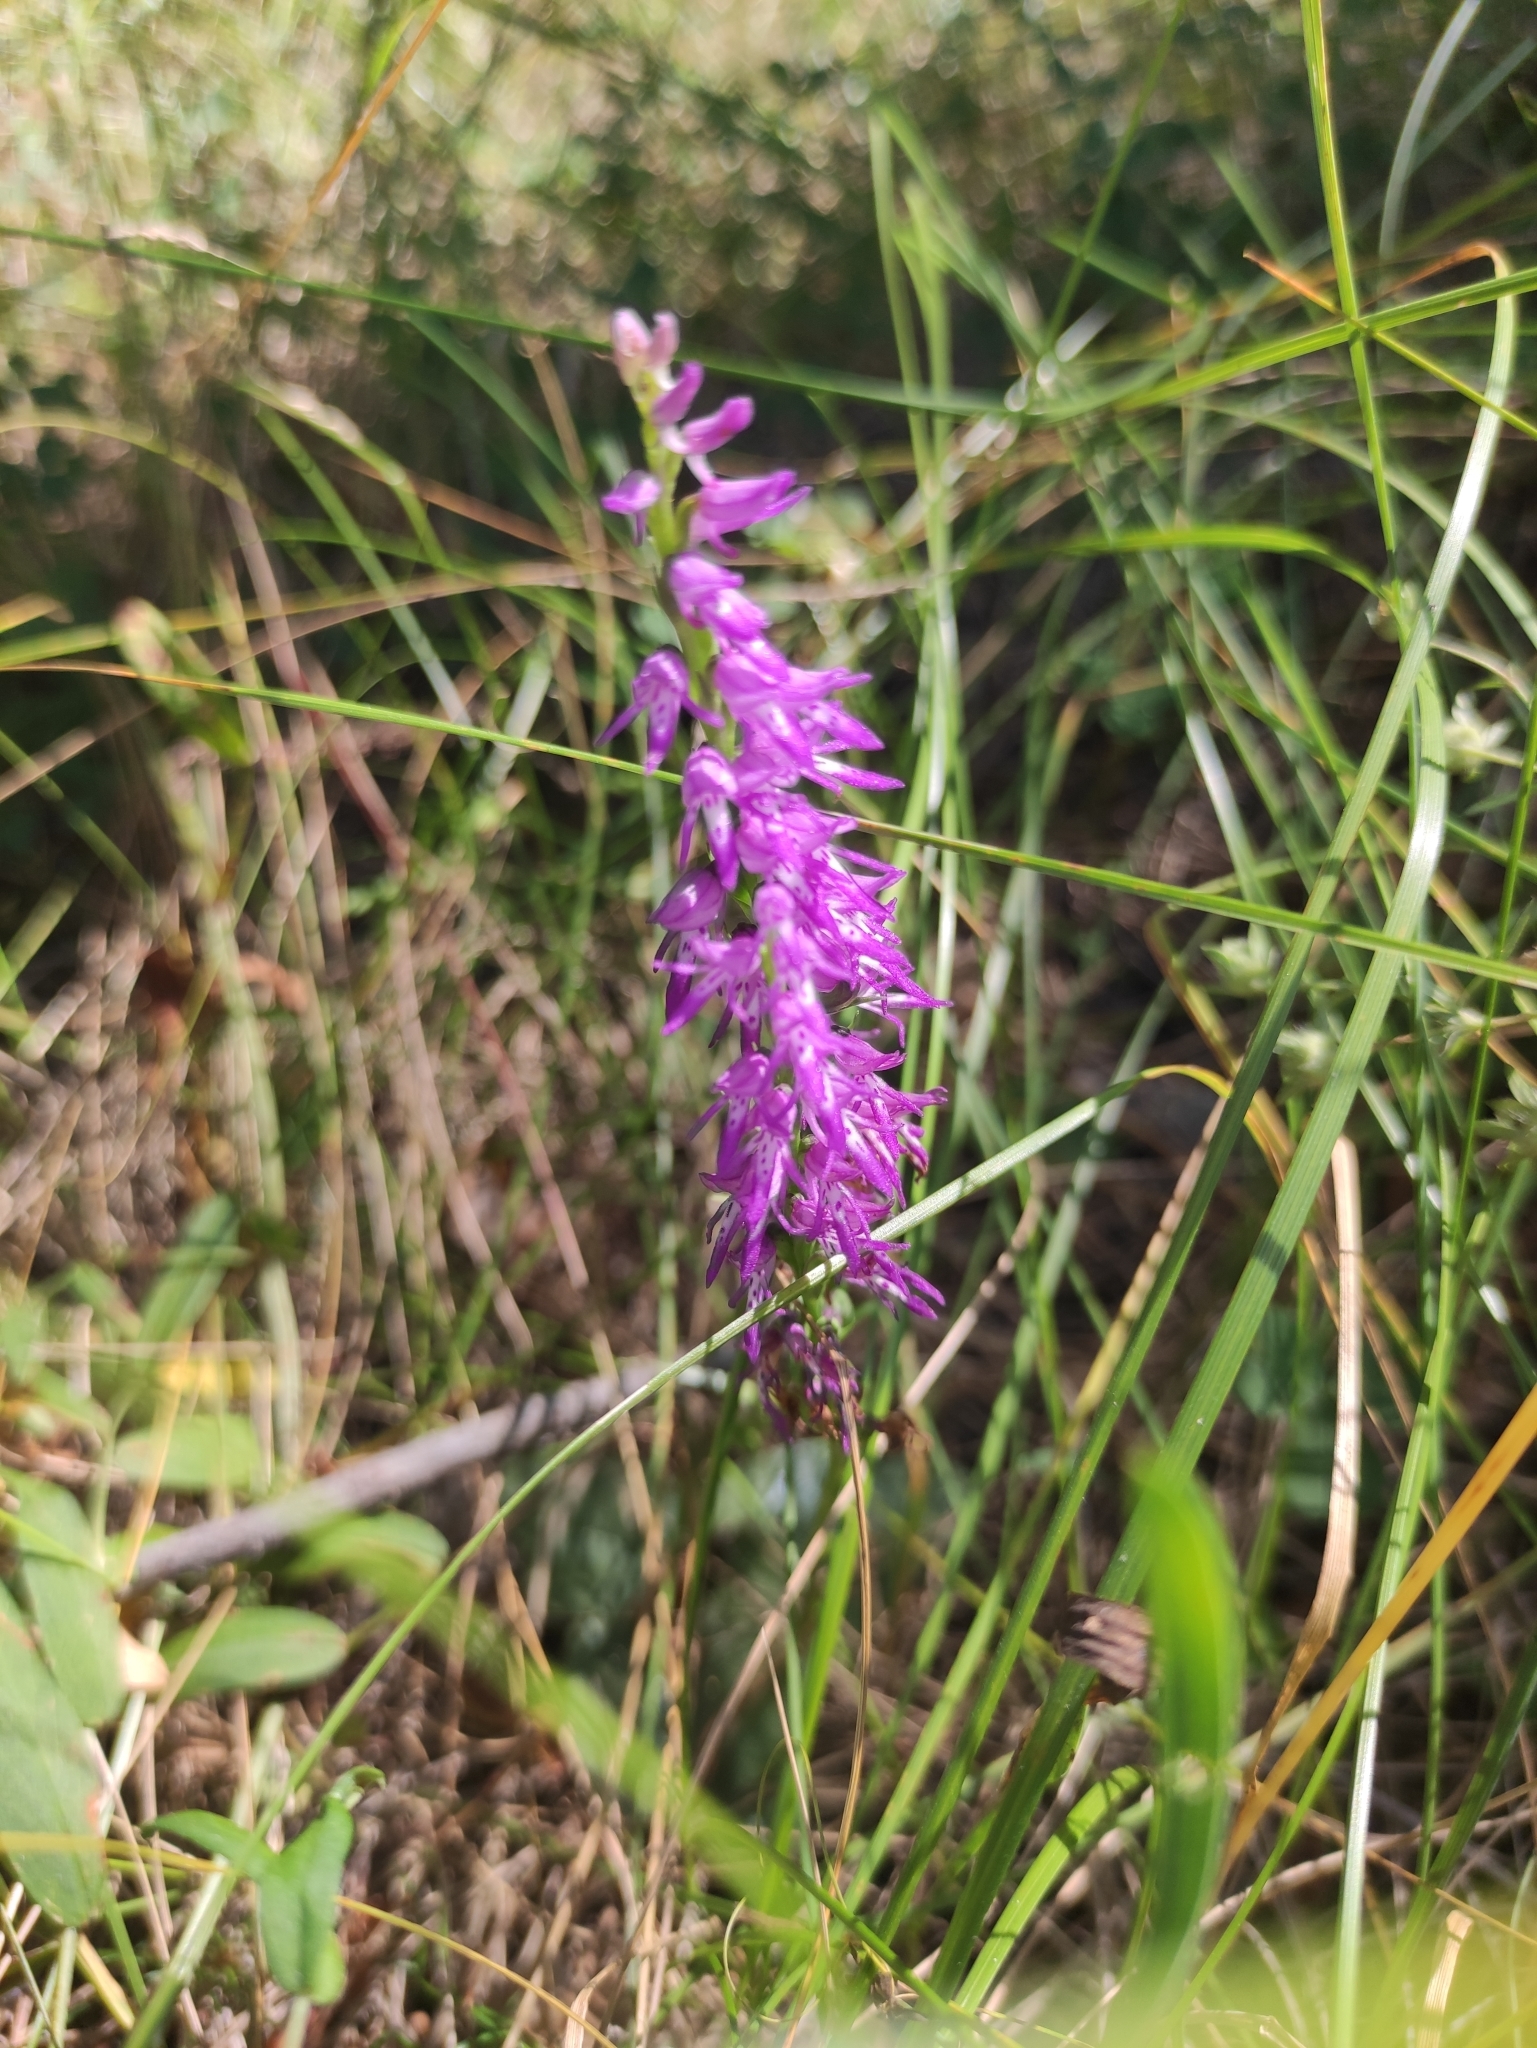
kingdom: Plantae
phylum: Tracheophyta
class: Liliopsida
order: Asparagales
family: Orchidaceae
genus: Hemipilia
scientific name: Hemipilia cucullata
